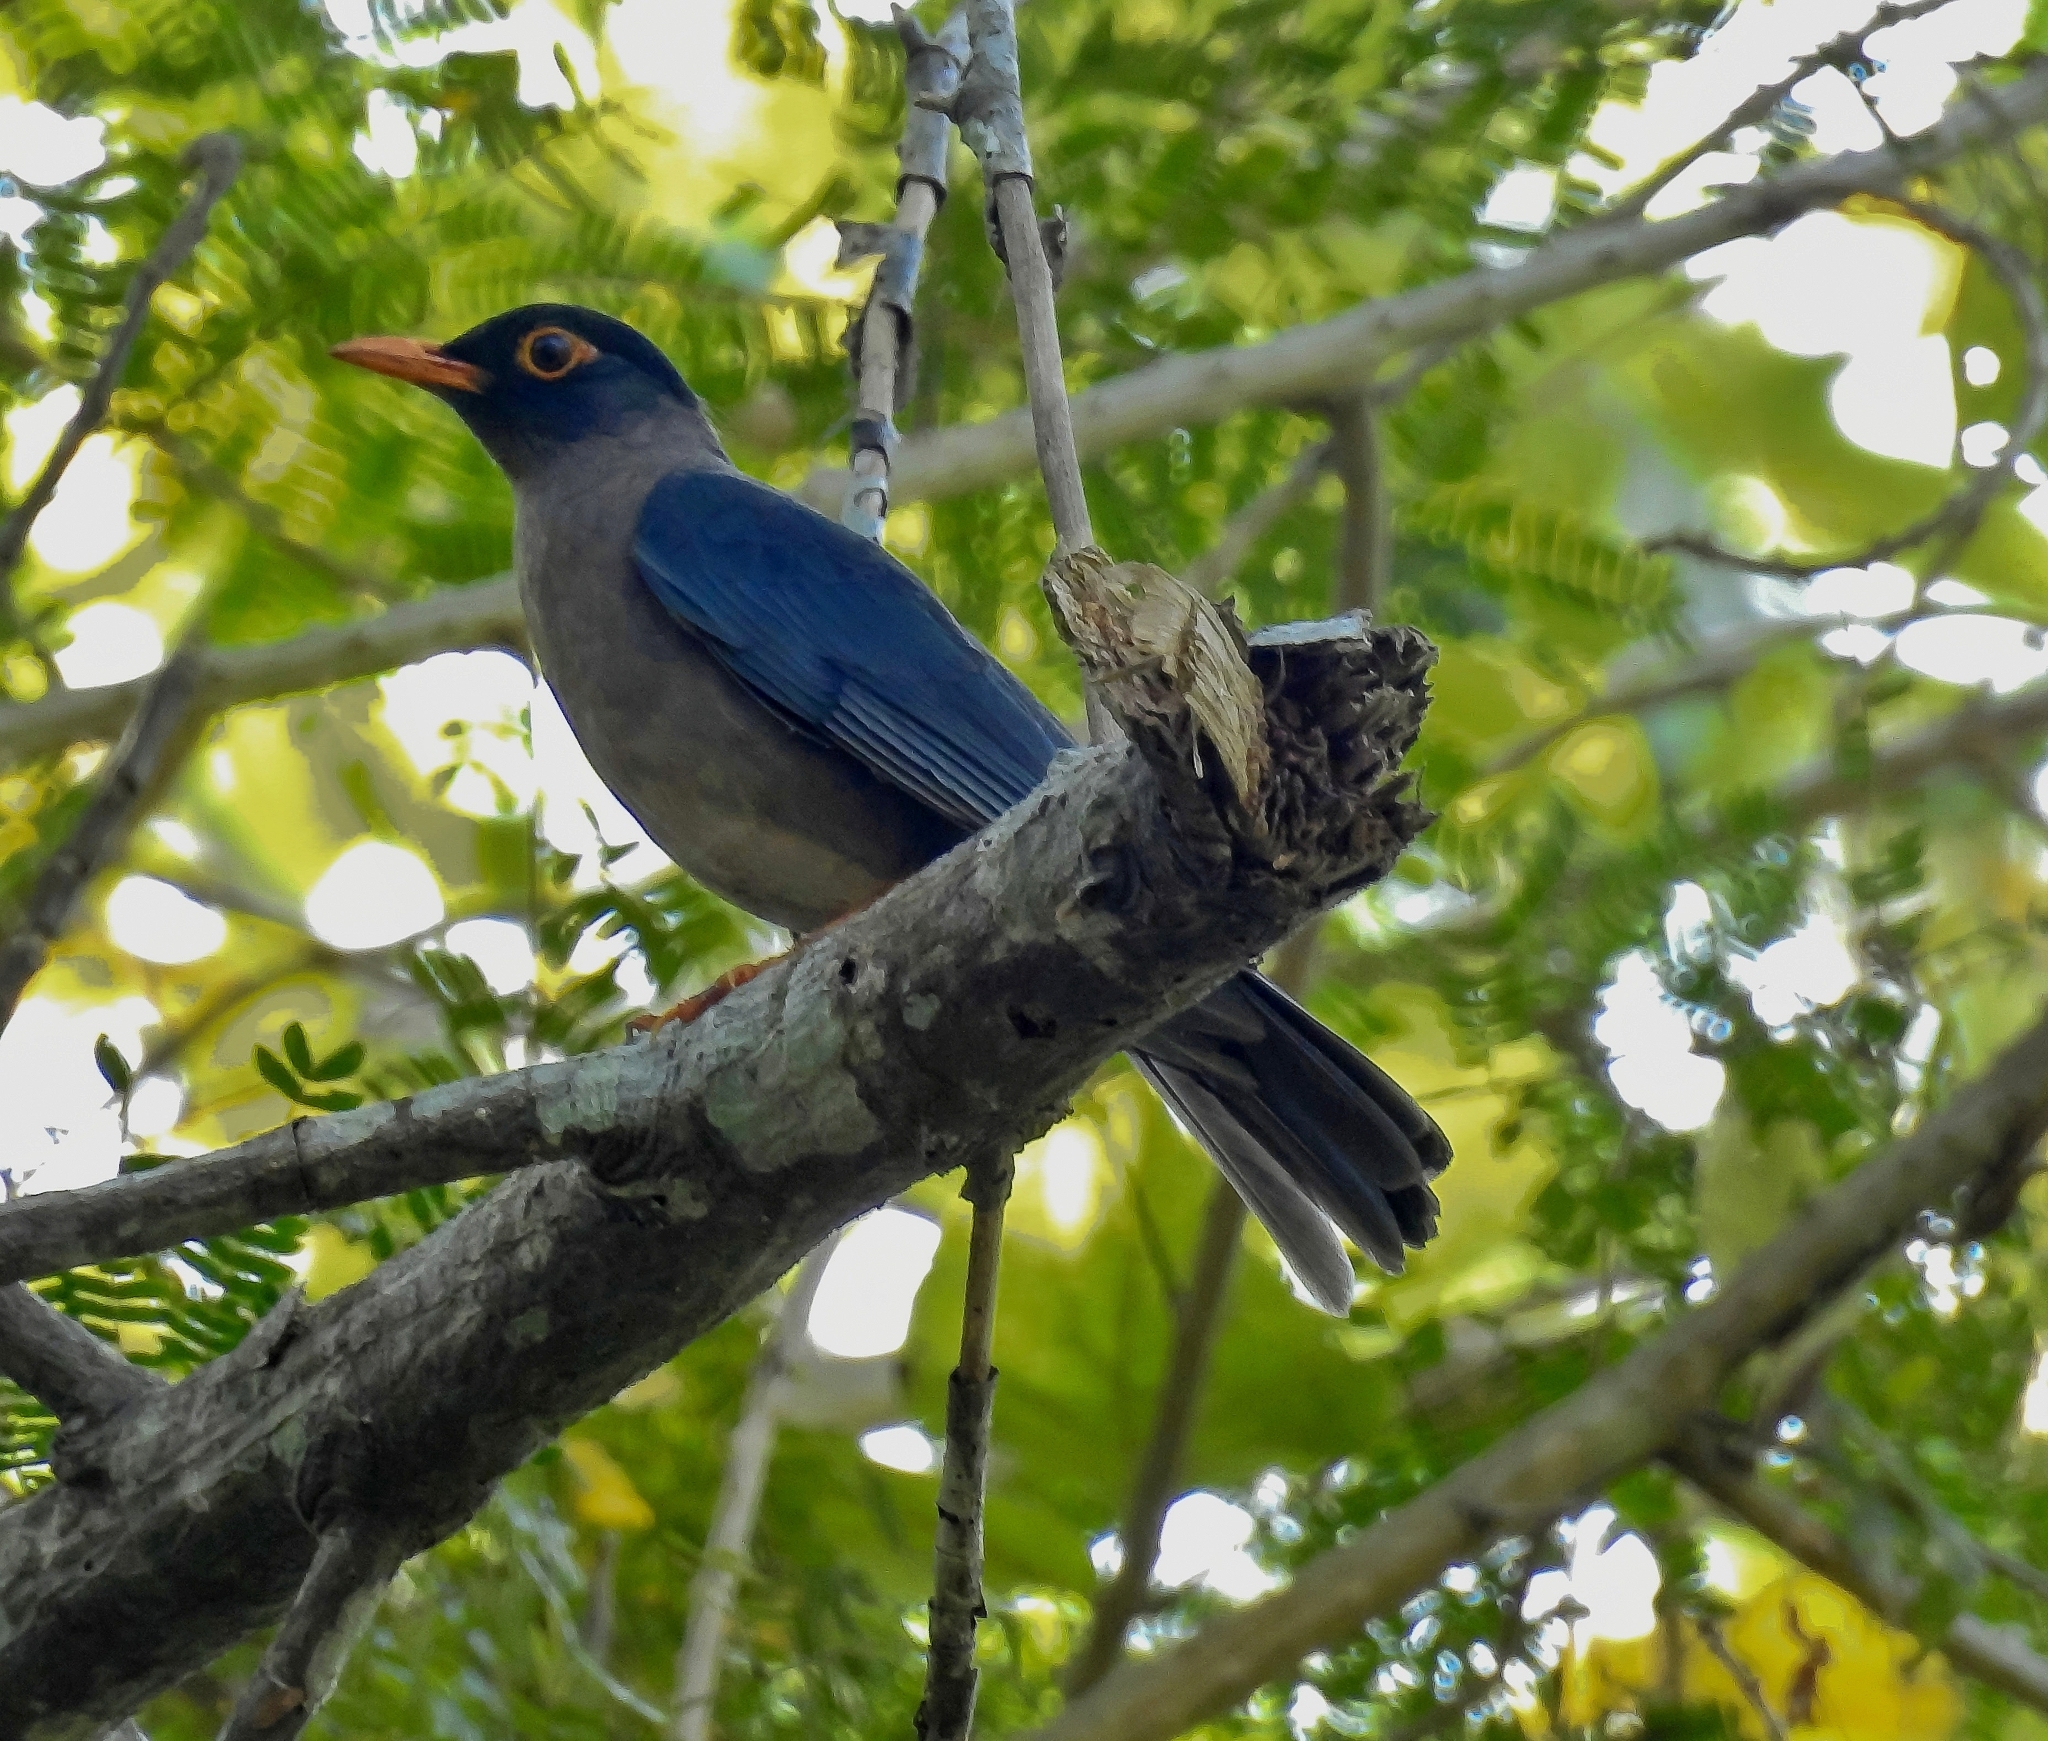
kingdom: Animalia
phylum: Chordata
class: Aves
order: Passeriformes
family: Turdidae
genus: Turdus
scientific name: Turdus simillimus
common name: Indian blackbird
